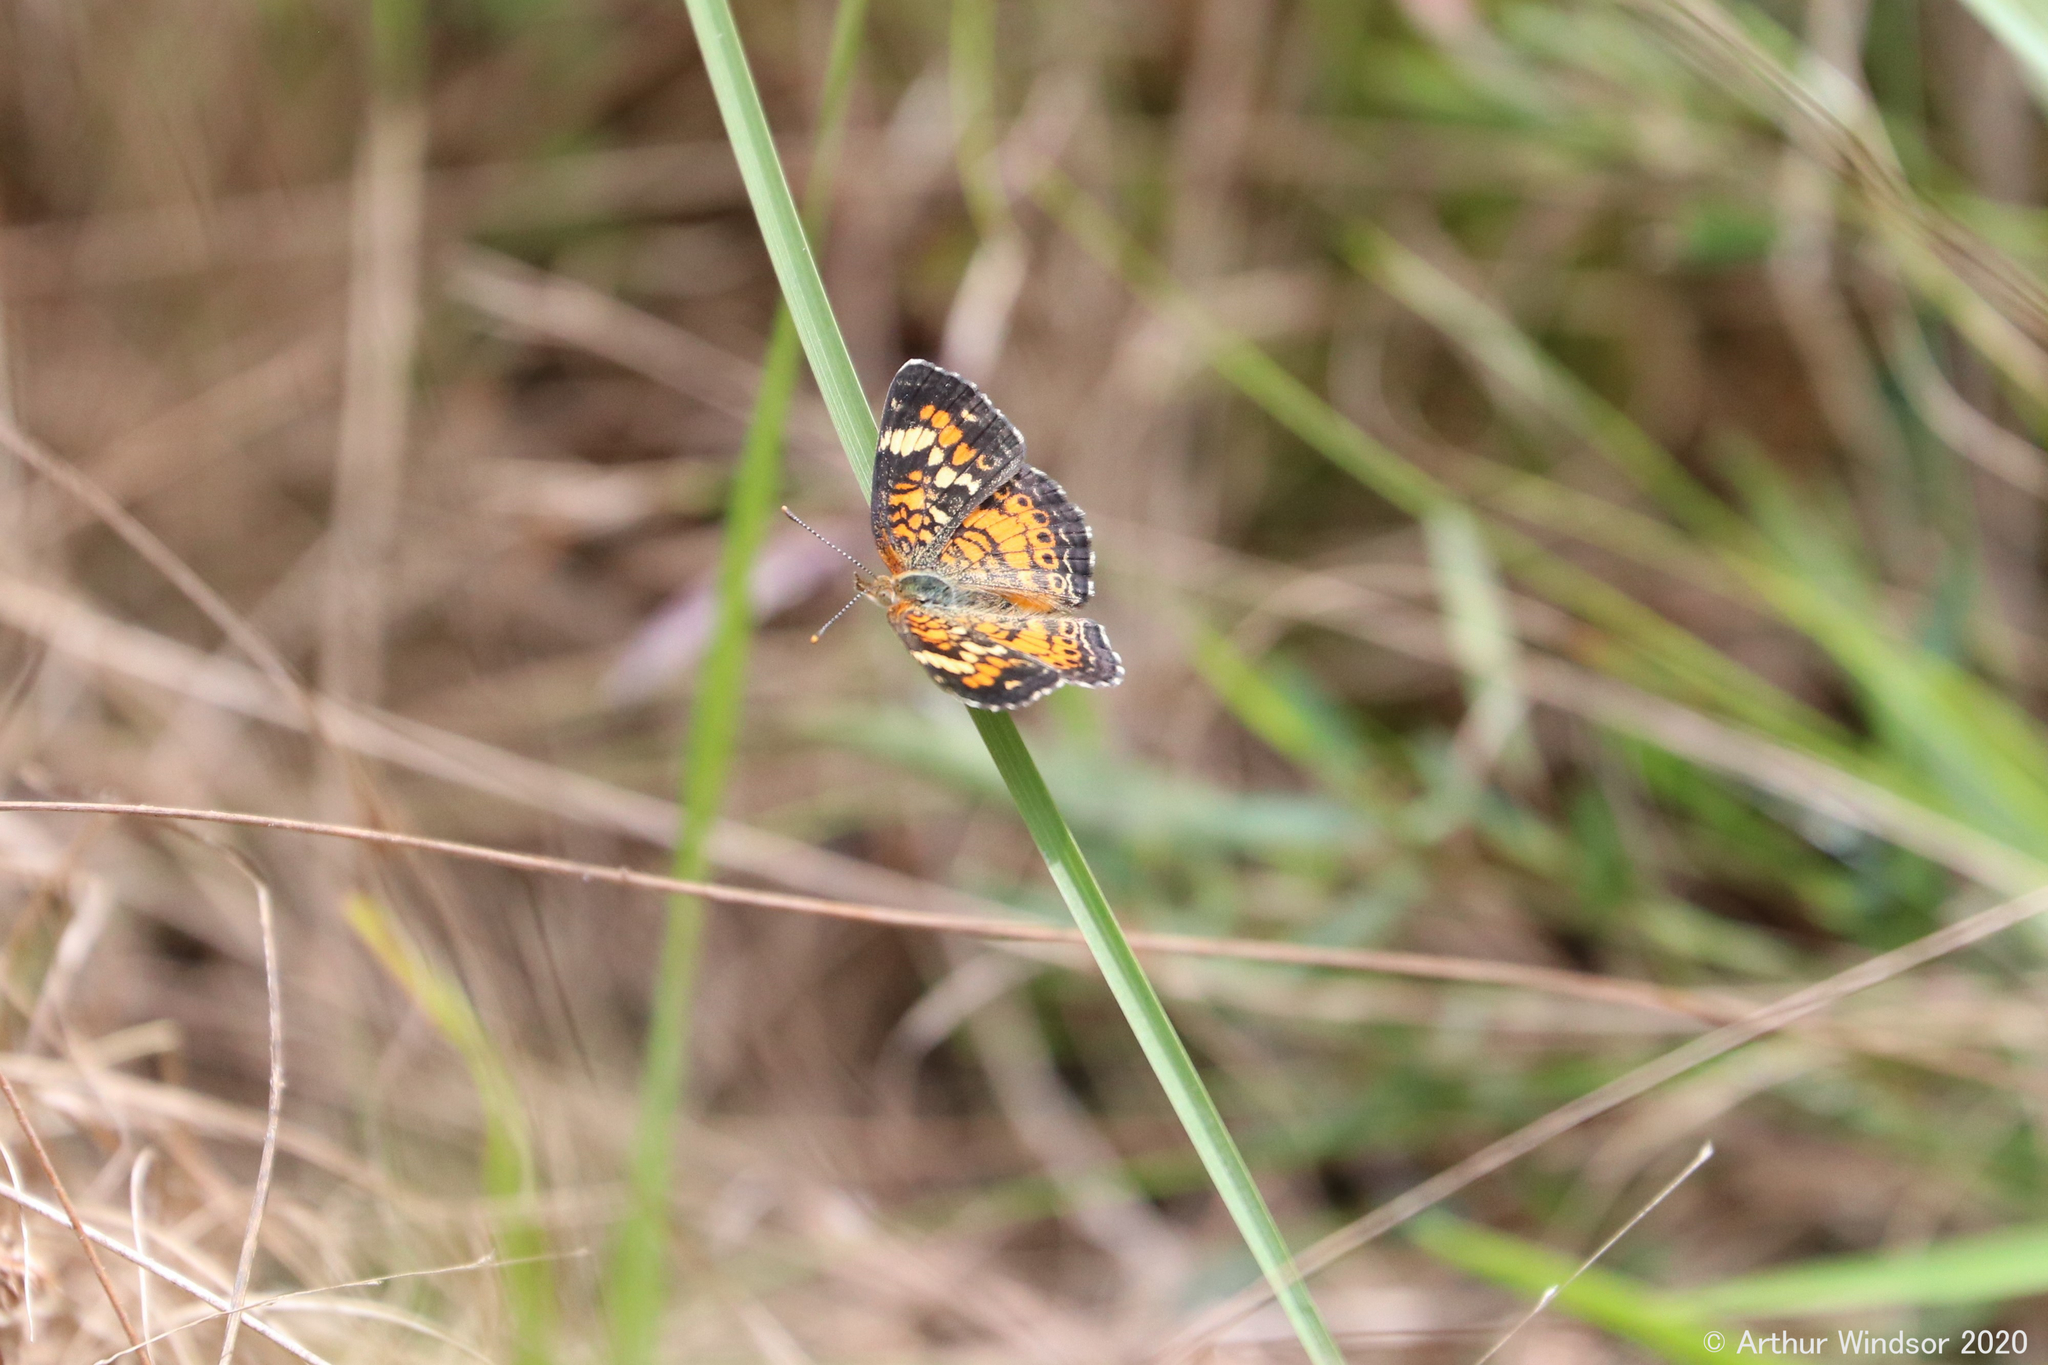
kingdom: Animalia
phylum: Arthropoda
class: Insecta
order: Lepidoptera
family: Nymphalidae
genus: Phyciodes
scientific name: Phyciodes phaon
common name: Phaon crescent
